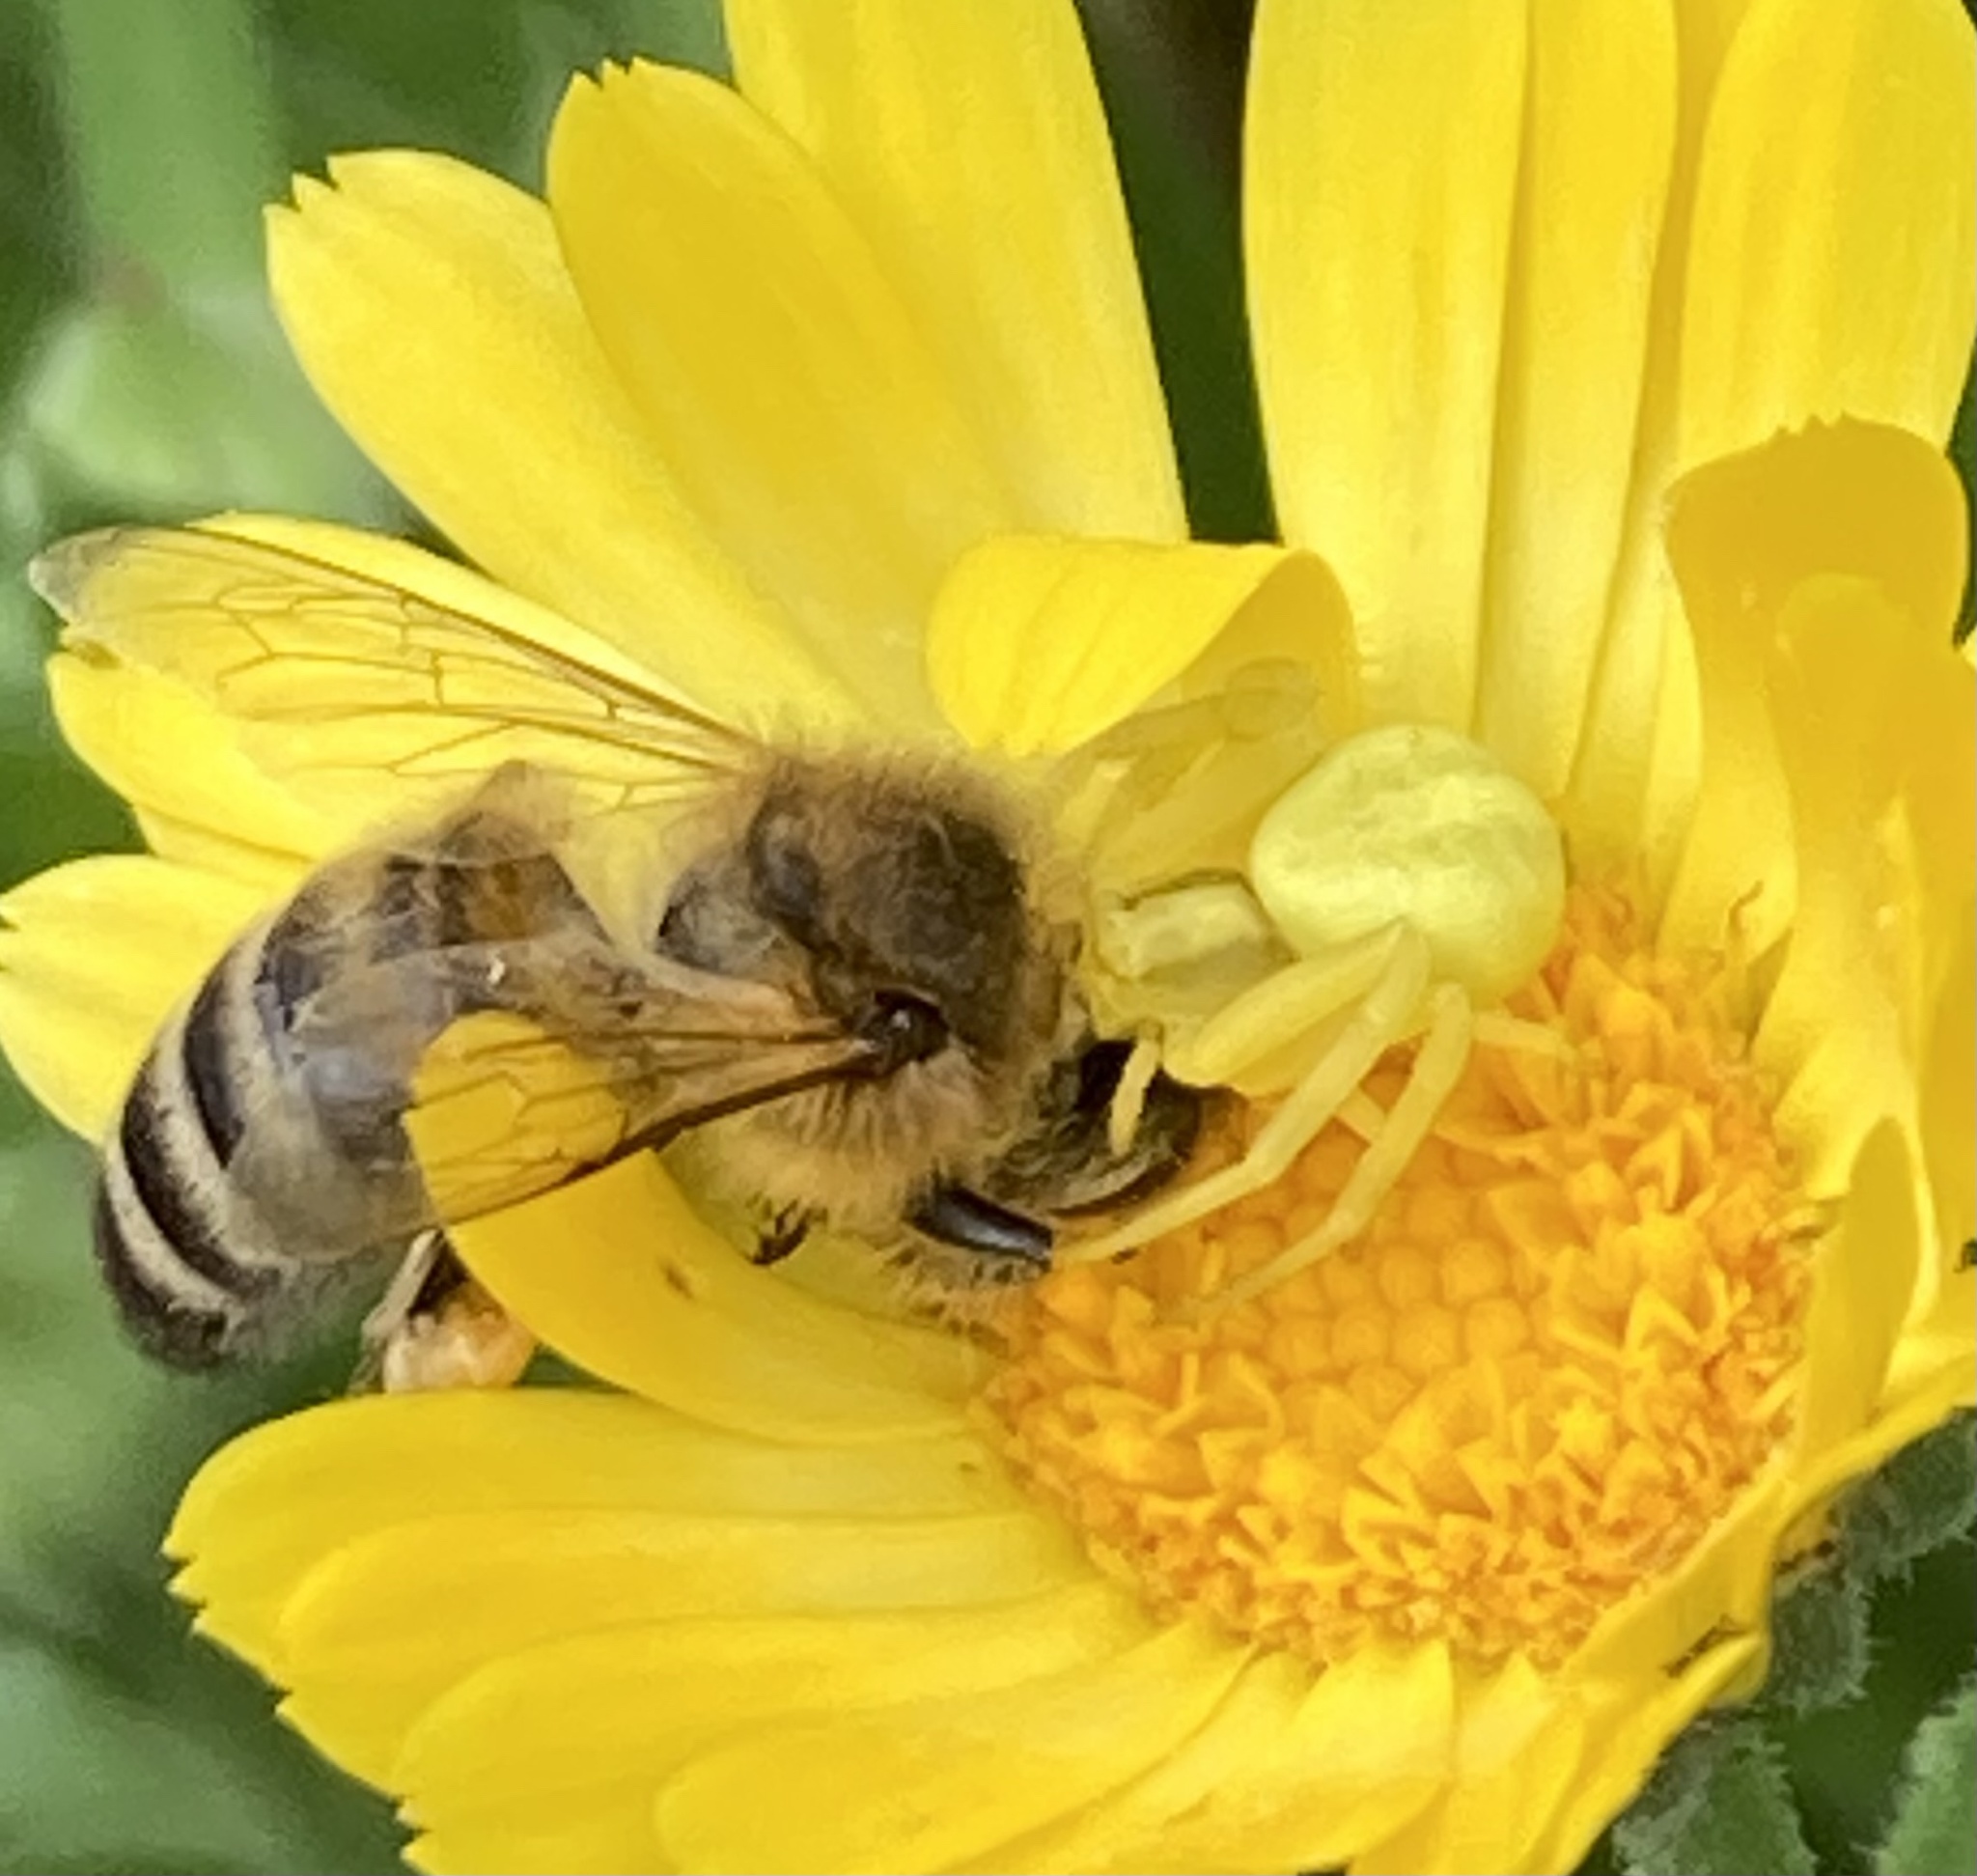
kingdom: Animalia
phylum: Arthropoda
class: Arachnida
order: Araneae
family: Thomisidae
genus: Misumena
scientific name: Misumena vatia
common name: Goldenrod crab spider
